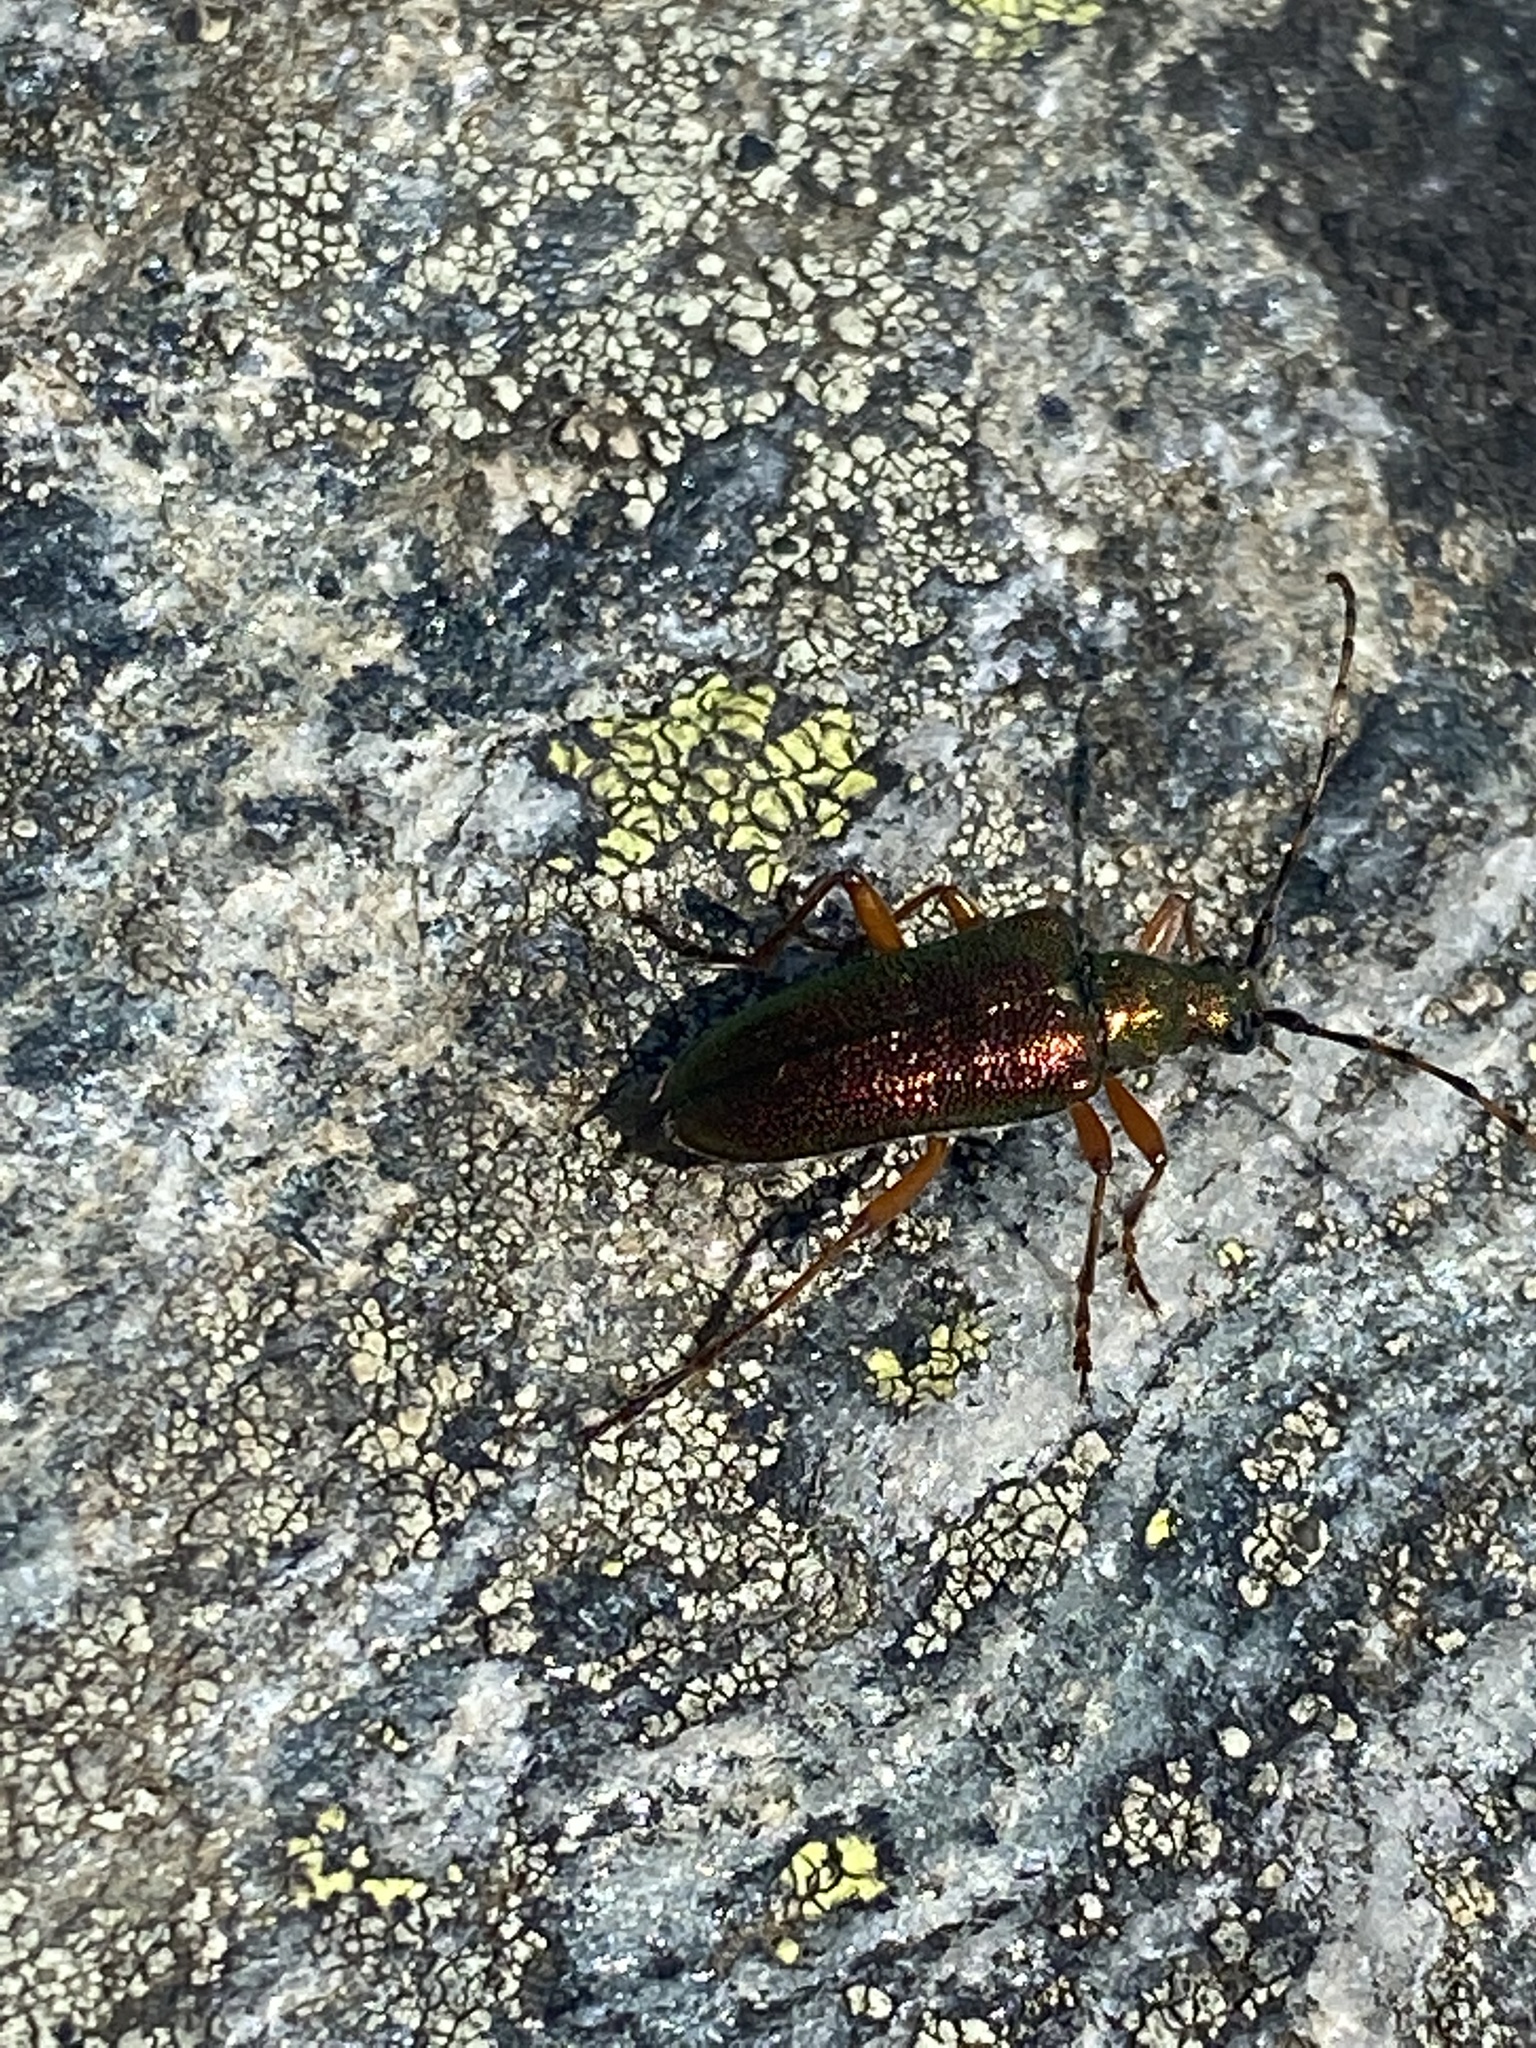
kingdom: Animalia
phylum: Arthropoda
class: Insecta
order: Coleoptera
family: Cerambycidae
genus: Anthophylax
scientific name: Anthophylax cyaneus
